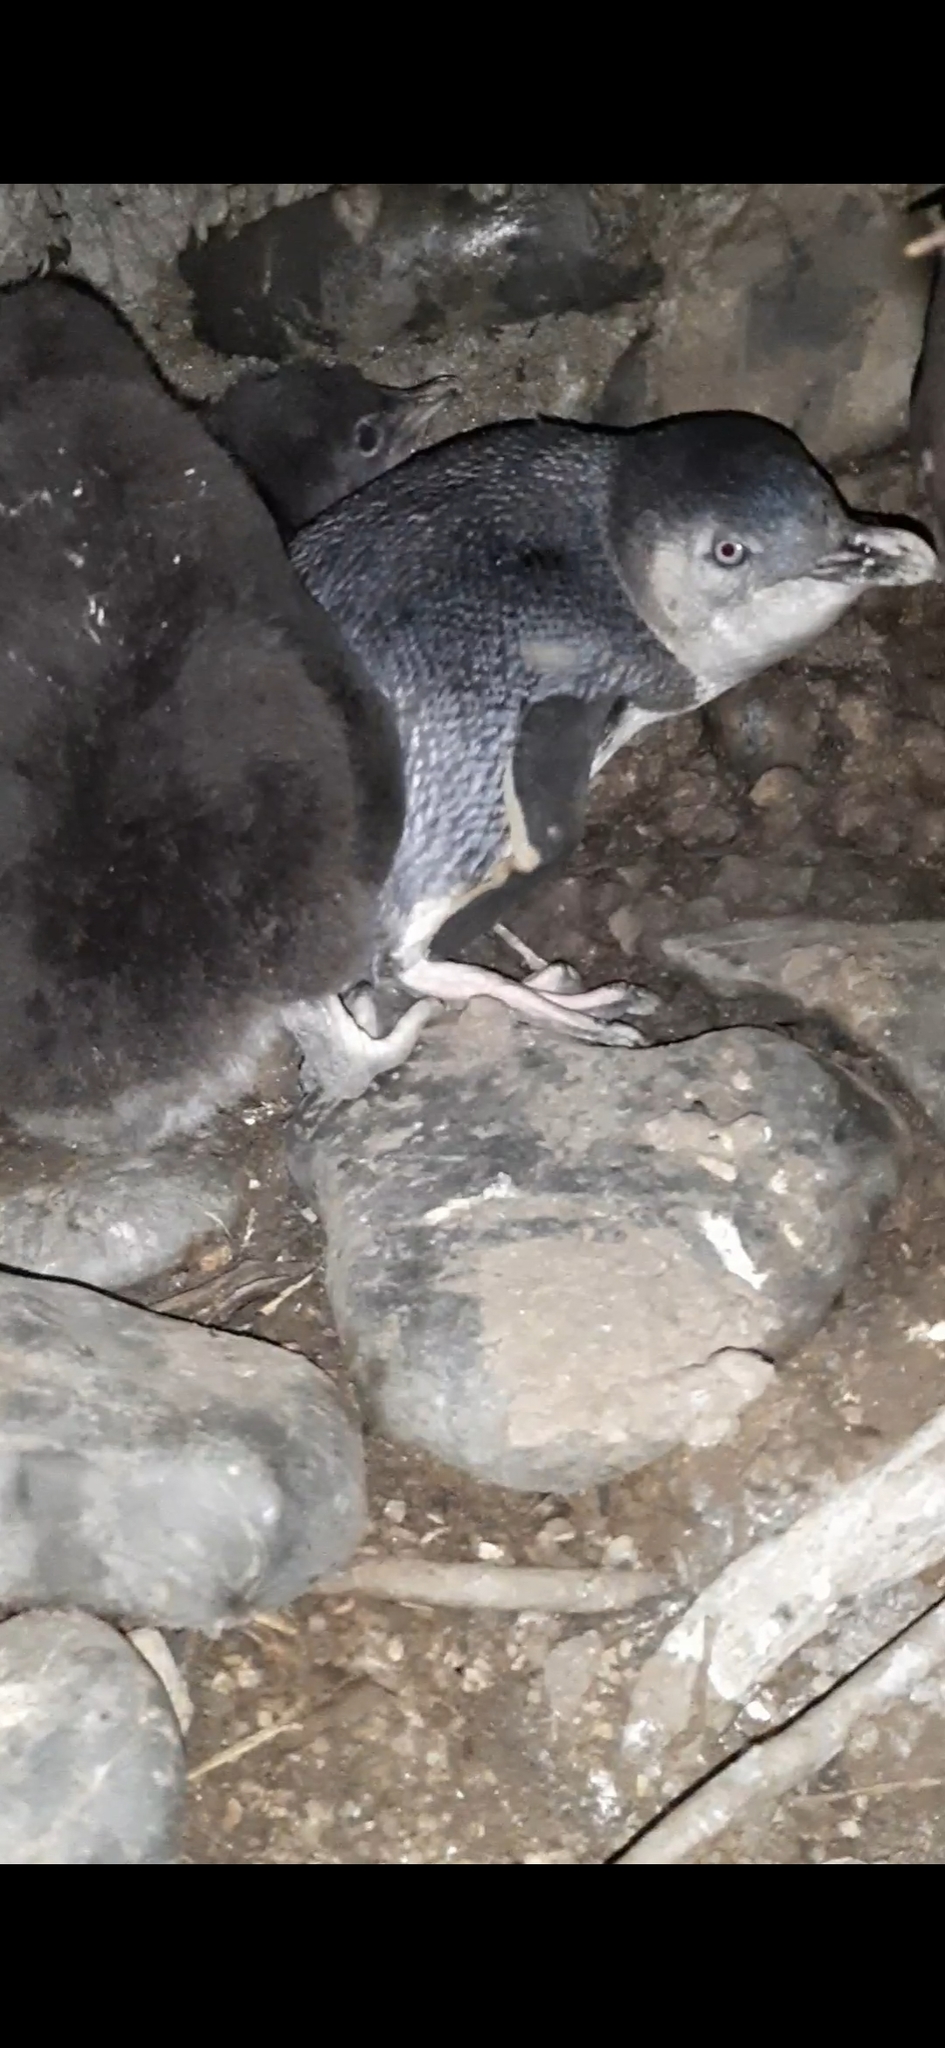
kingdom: Animalia
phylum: Chordata
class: Aves
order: Sphenisciformes
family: Spheniscidae
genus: Eudyptula
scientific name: Eudyptula minor
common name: Little penguin
